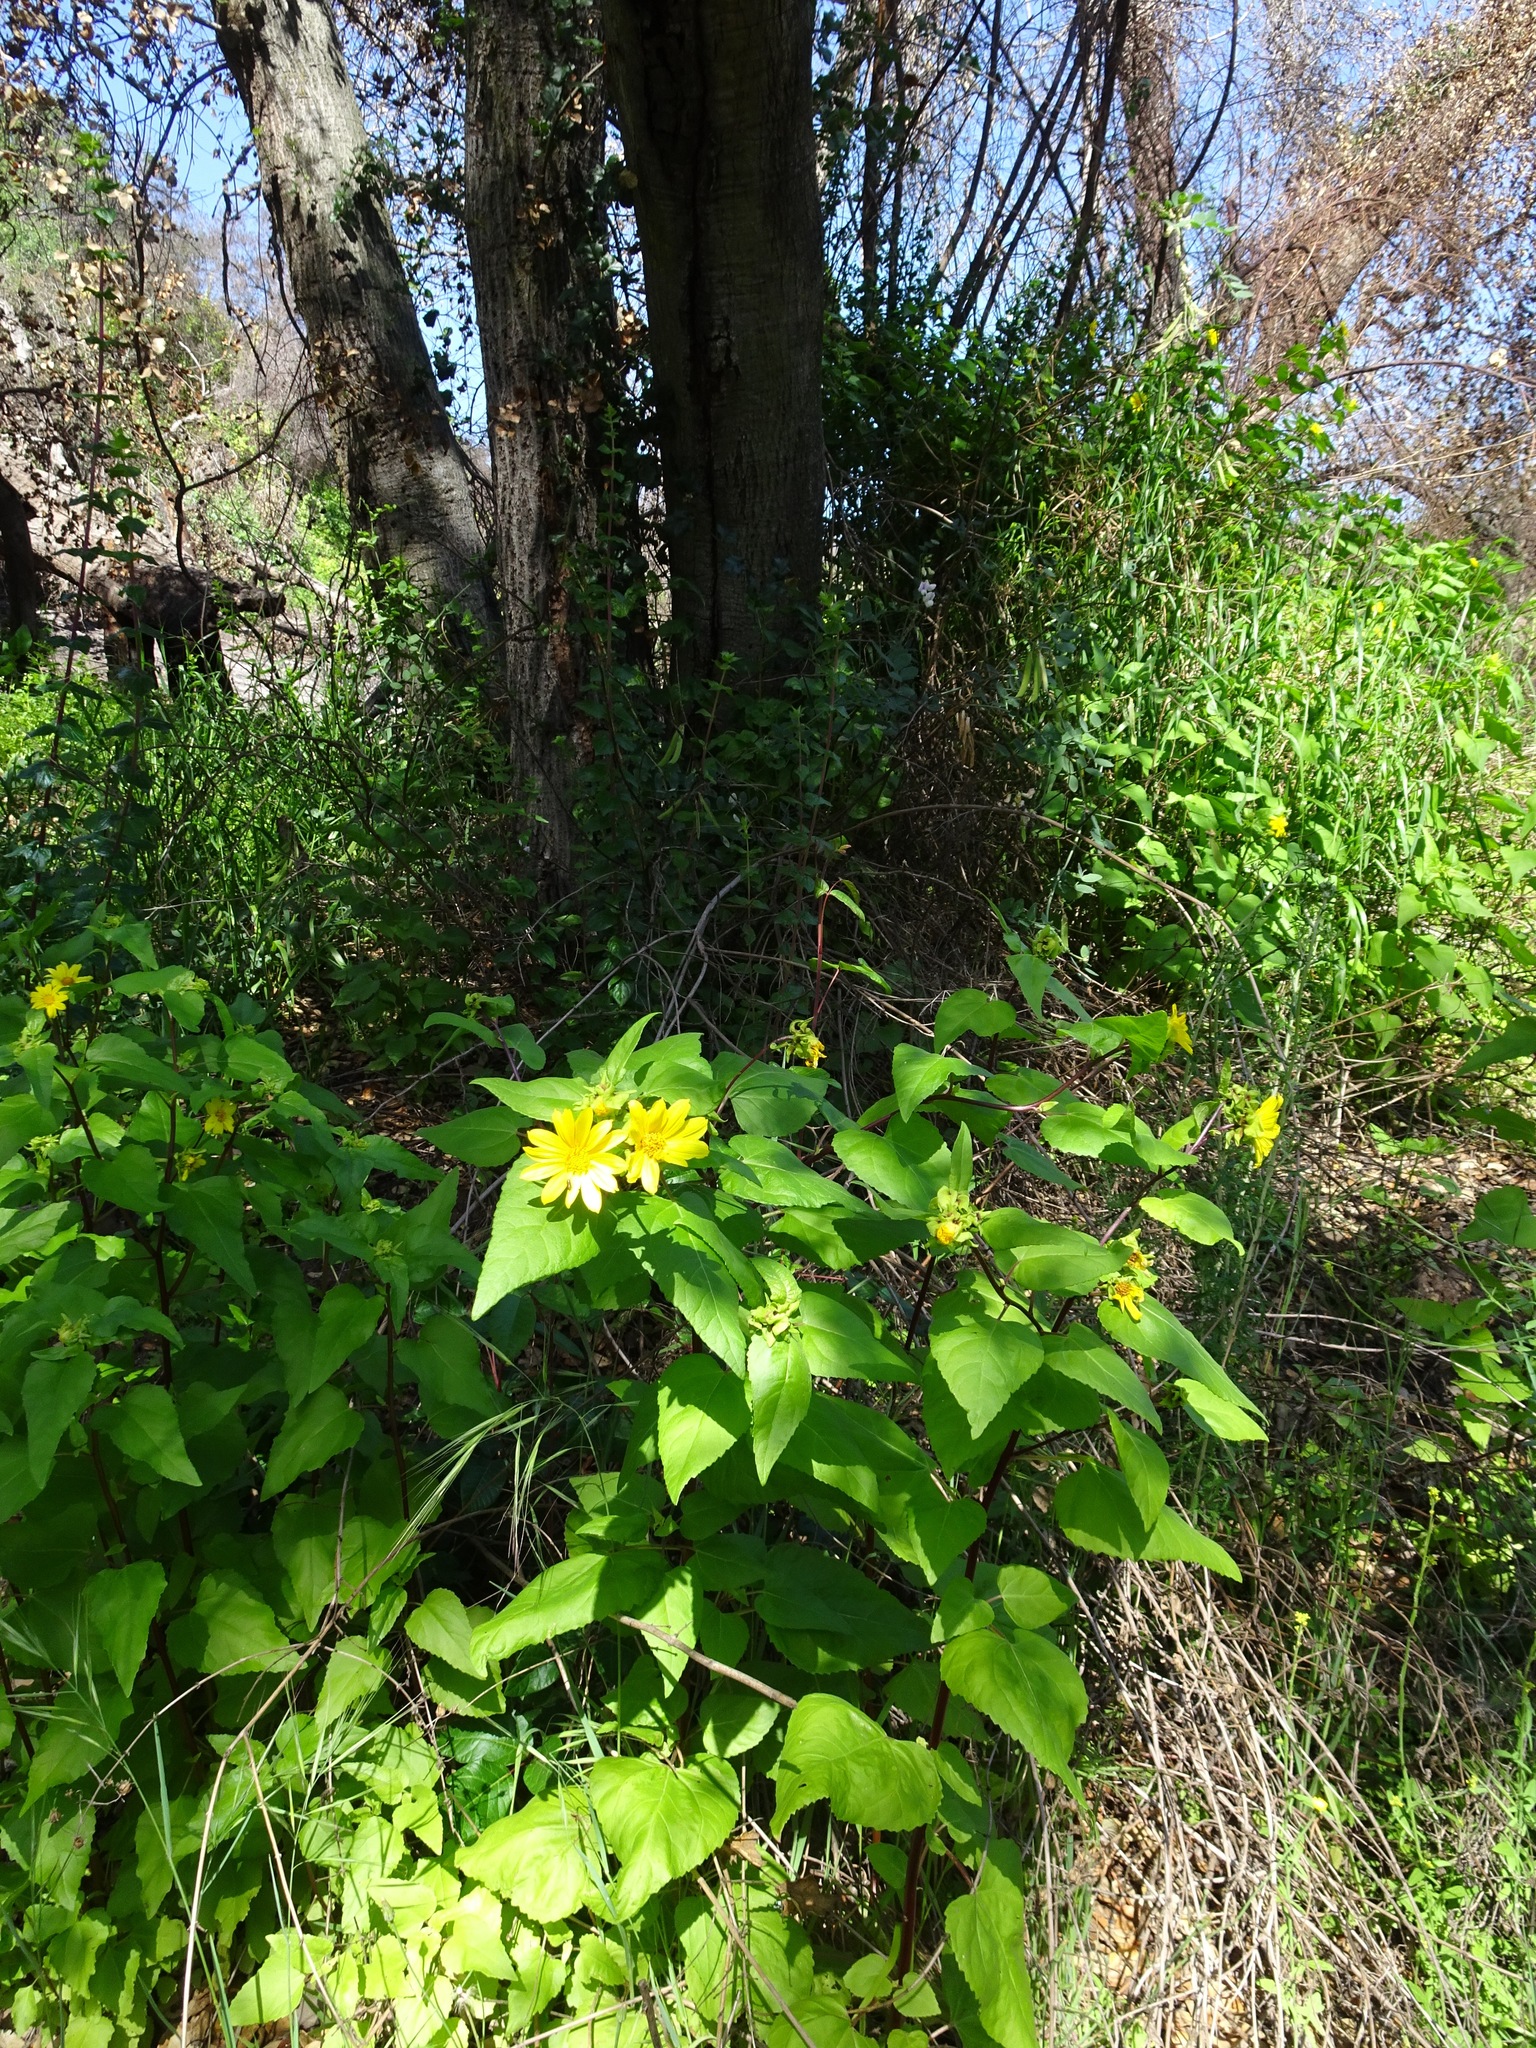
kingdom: Plantae
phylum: Tracheophyta
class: Magnoliopsida
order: Asterales
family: Asteraceae
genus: Venegasia
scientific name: Venegasia carpesioides
